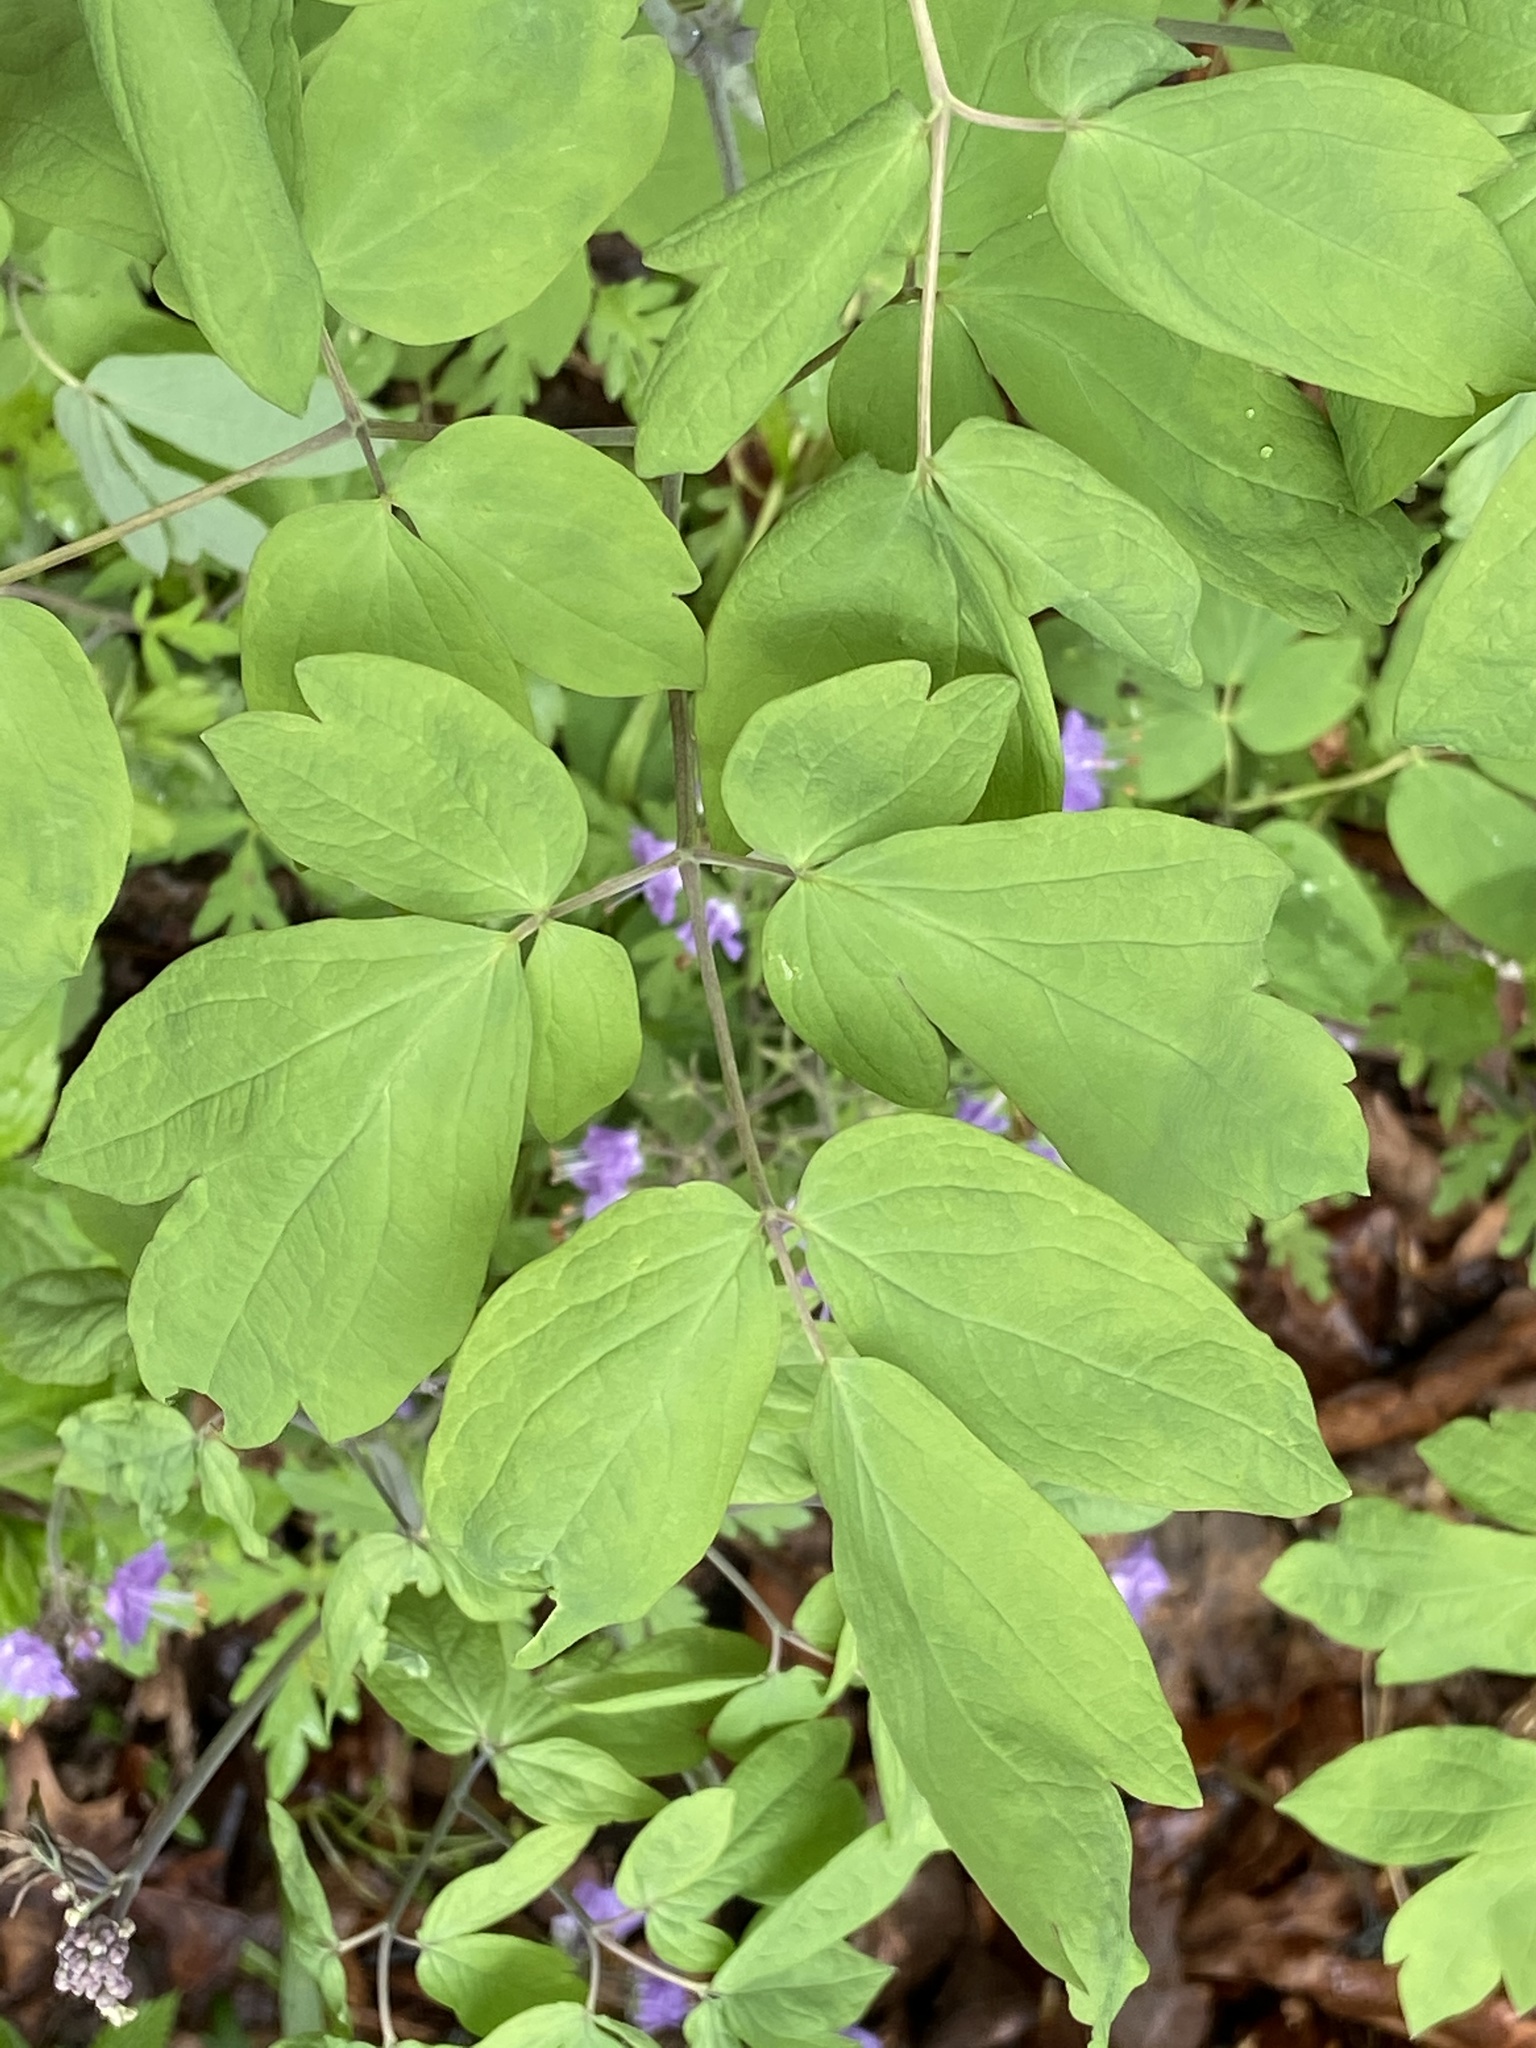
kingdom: Plantae
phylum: Tracheophyta
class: Magnoliopsida
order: Ranunculales
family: Berberidaceae
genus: Caulophyllum
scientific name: Caulophyllum thalictroides
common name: Blue cohosh
